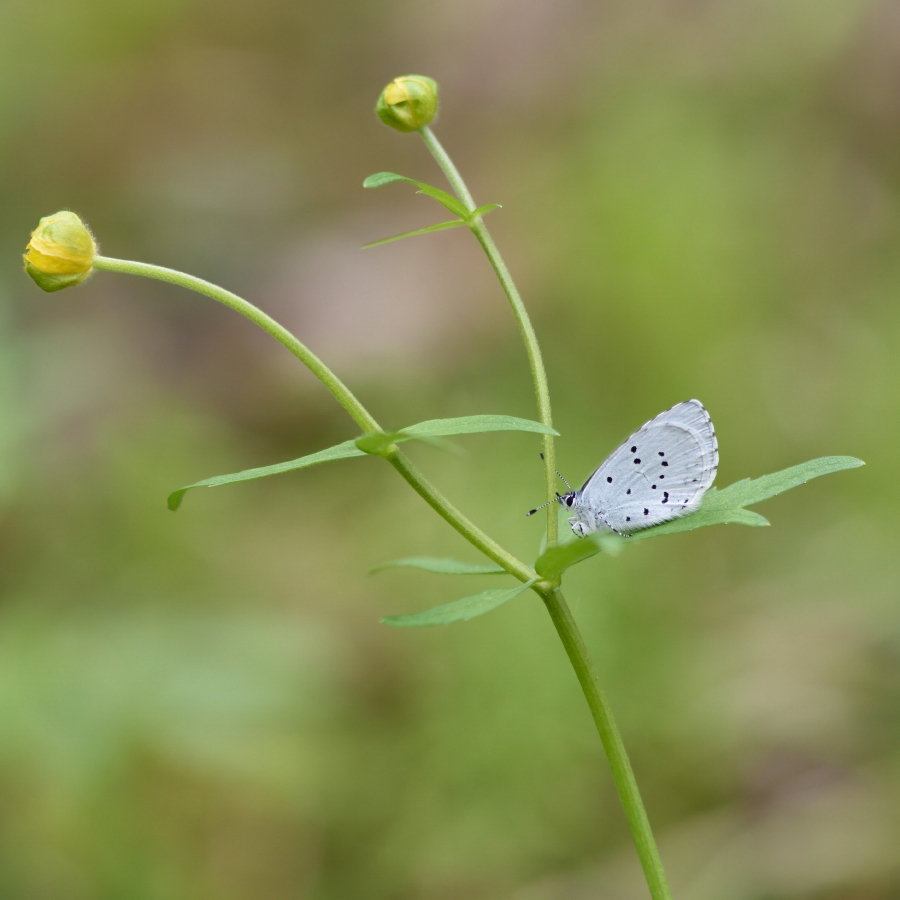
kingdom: Animalia
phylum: Arthropoda
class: Insecta
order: Lepidoptera
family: Lycaenidae
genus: Celastrina
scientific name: Celastrina argiolus
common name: Holly blue
